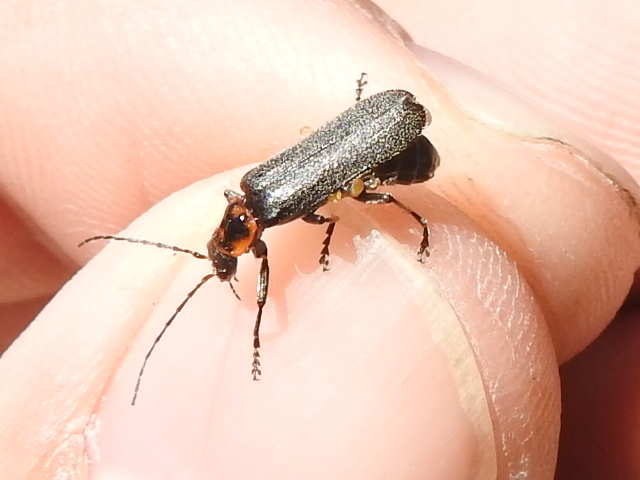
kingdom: Animalia
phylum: Arthropoda
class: Insecta
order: Coleoptera
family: Cantharidae
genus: Cyrtomoptera
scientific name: Cyrtomoptera divisa
